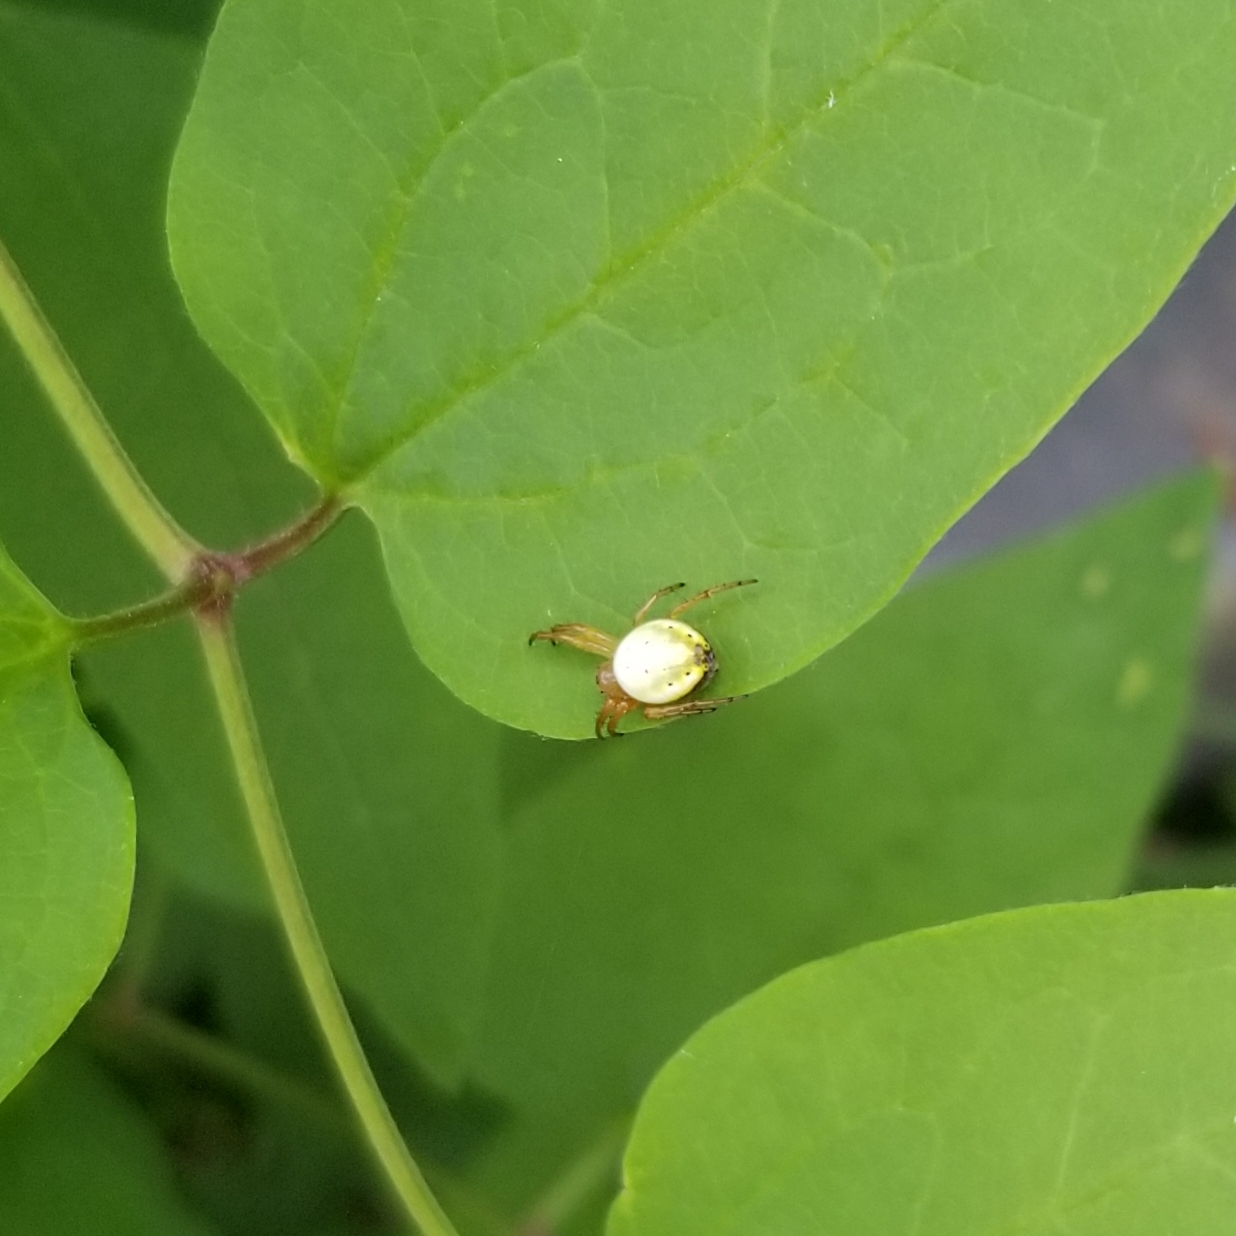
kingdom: Animalia
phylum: Arthropoda
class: Arachnida
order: Araneae
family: Araneidae
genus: Araniella
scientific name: Araniella displicata
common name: Sixspotted orb weaver
